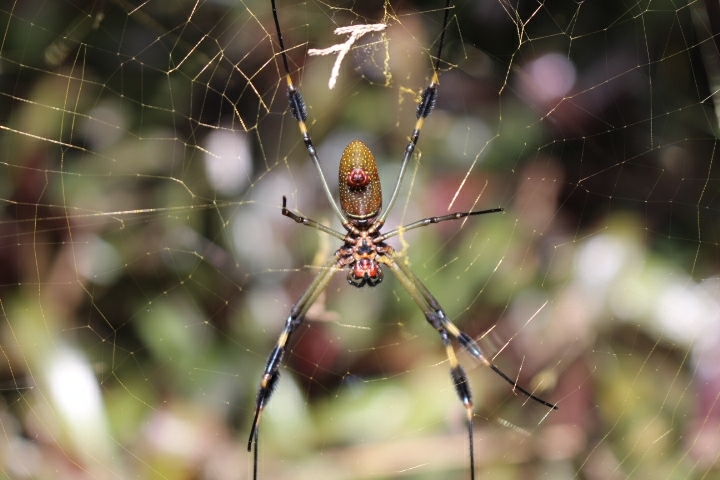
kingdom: Animalia
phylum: Arthropoda
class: Arachnida
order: Araneae
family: Araneidae
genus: Trichonephila
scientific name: Trichonephila clavipes
